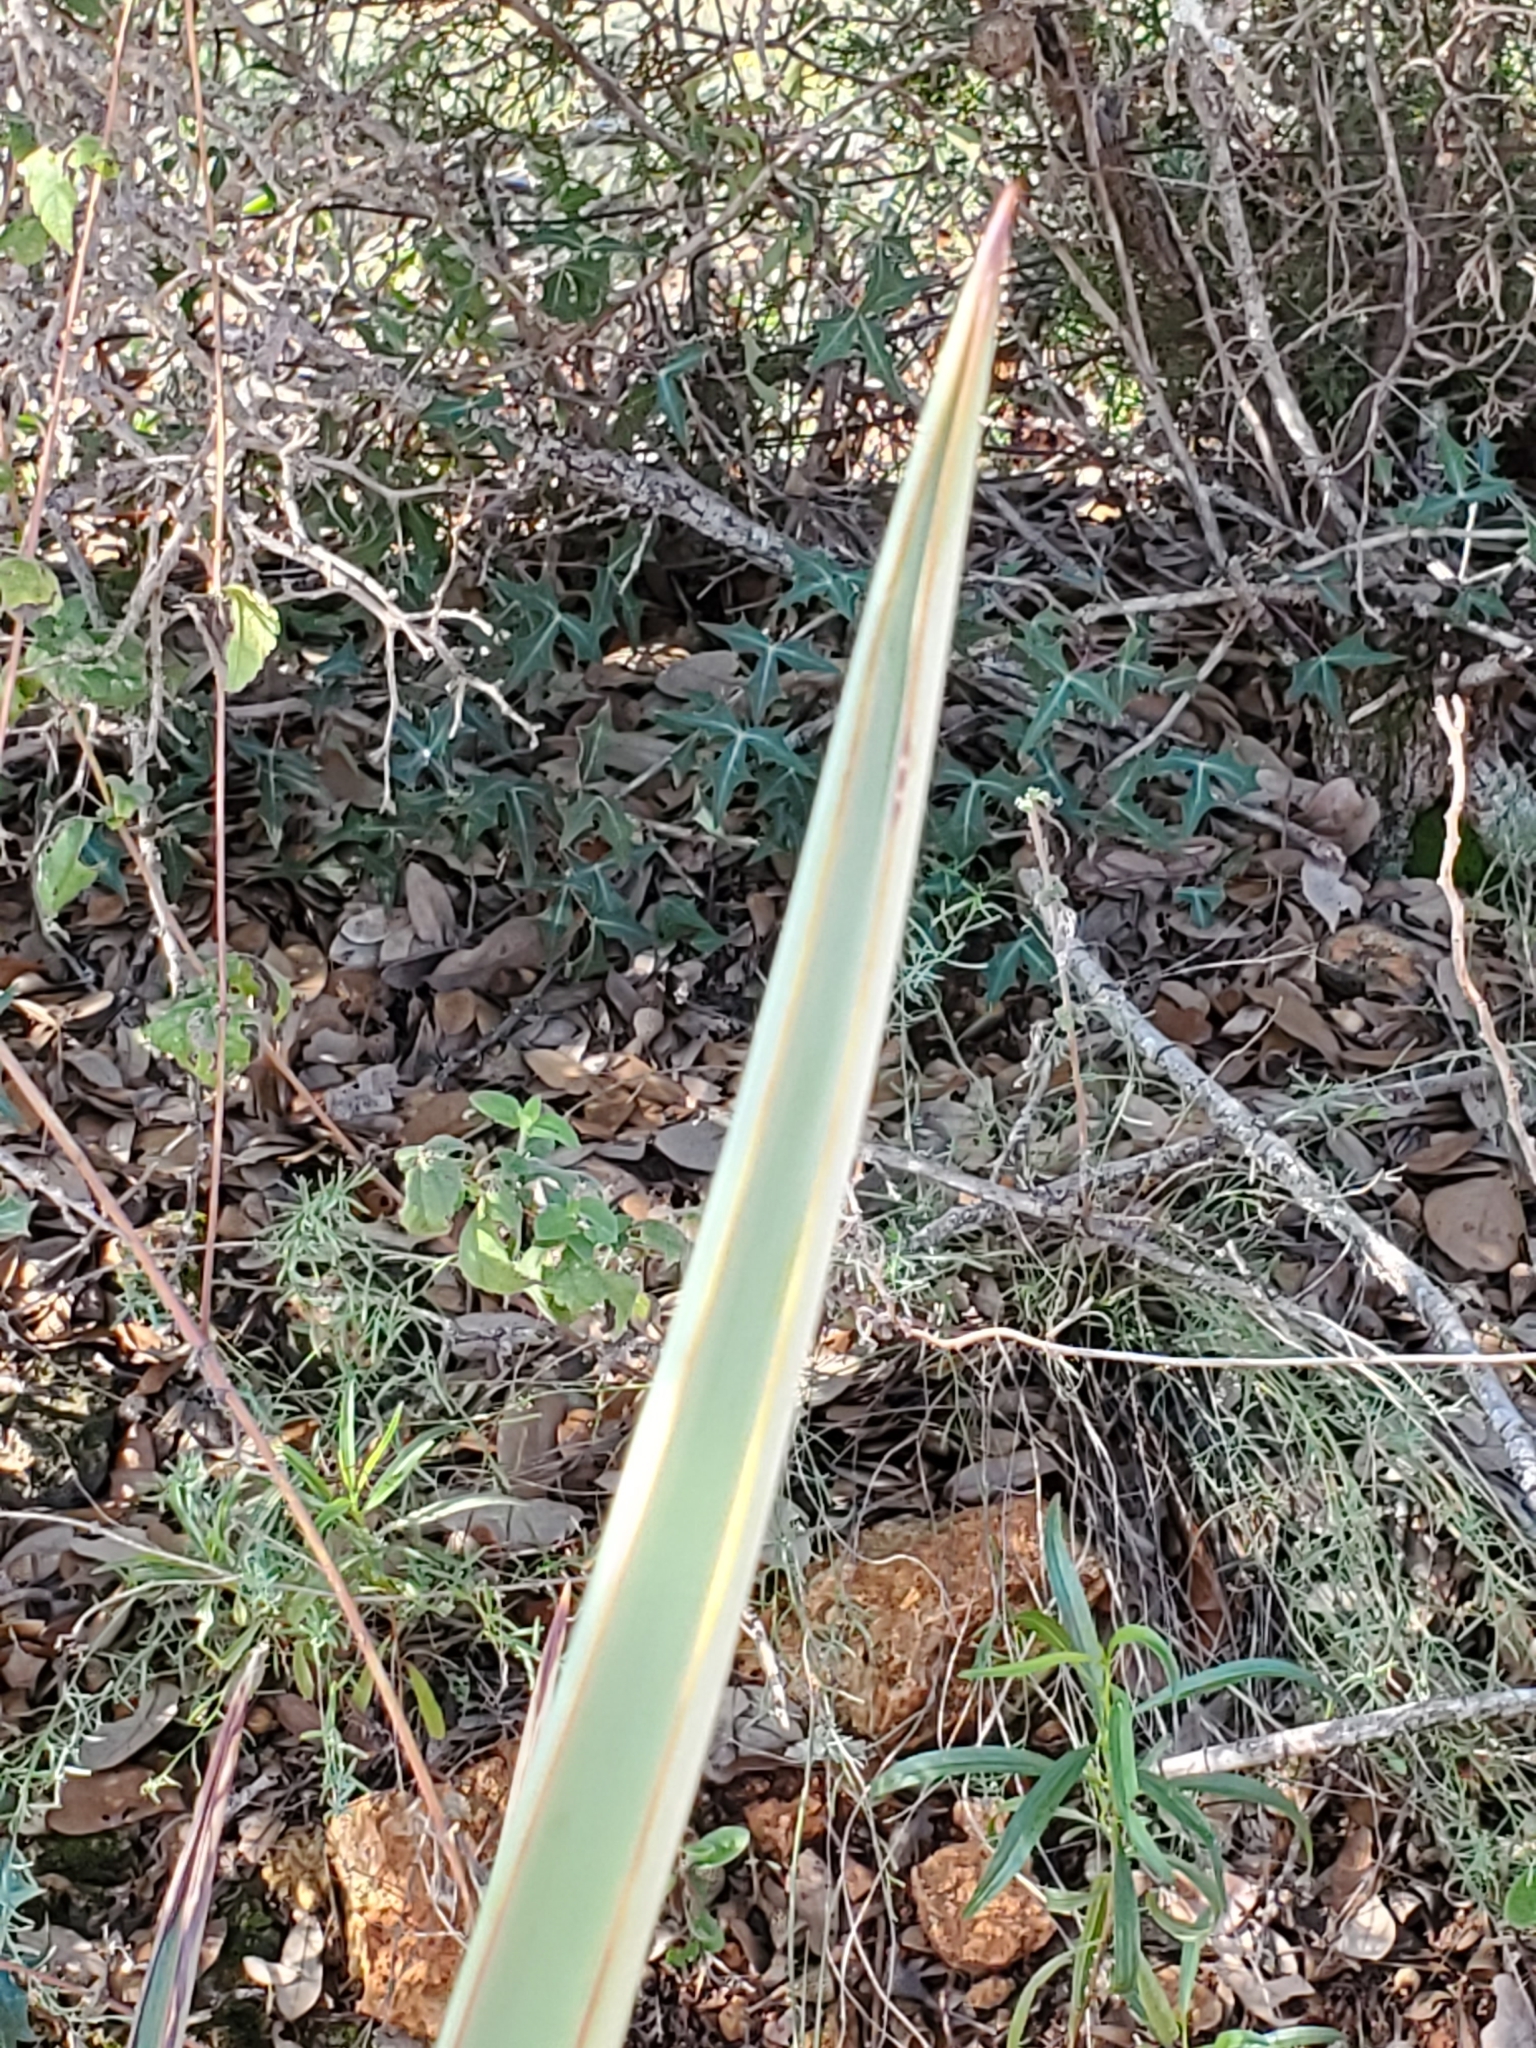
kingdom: Plantae
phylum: Tracheophyta
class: Liliopsida
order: Asparagales
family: Asparagaceae
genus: Yucca
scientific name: Yucca treculiana
